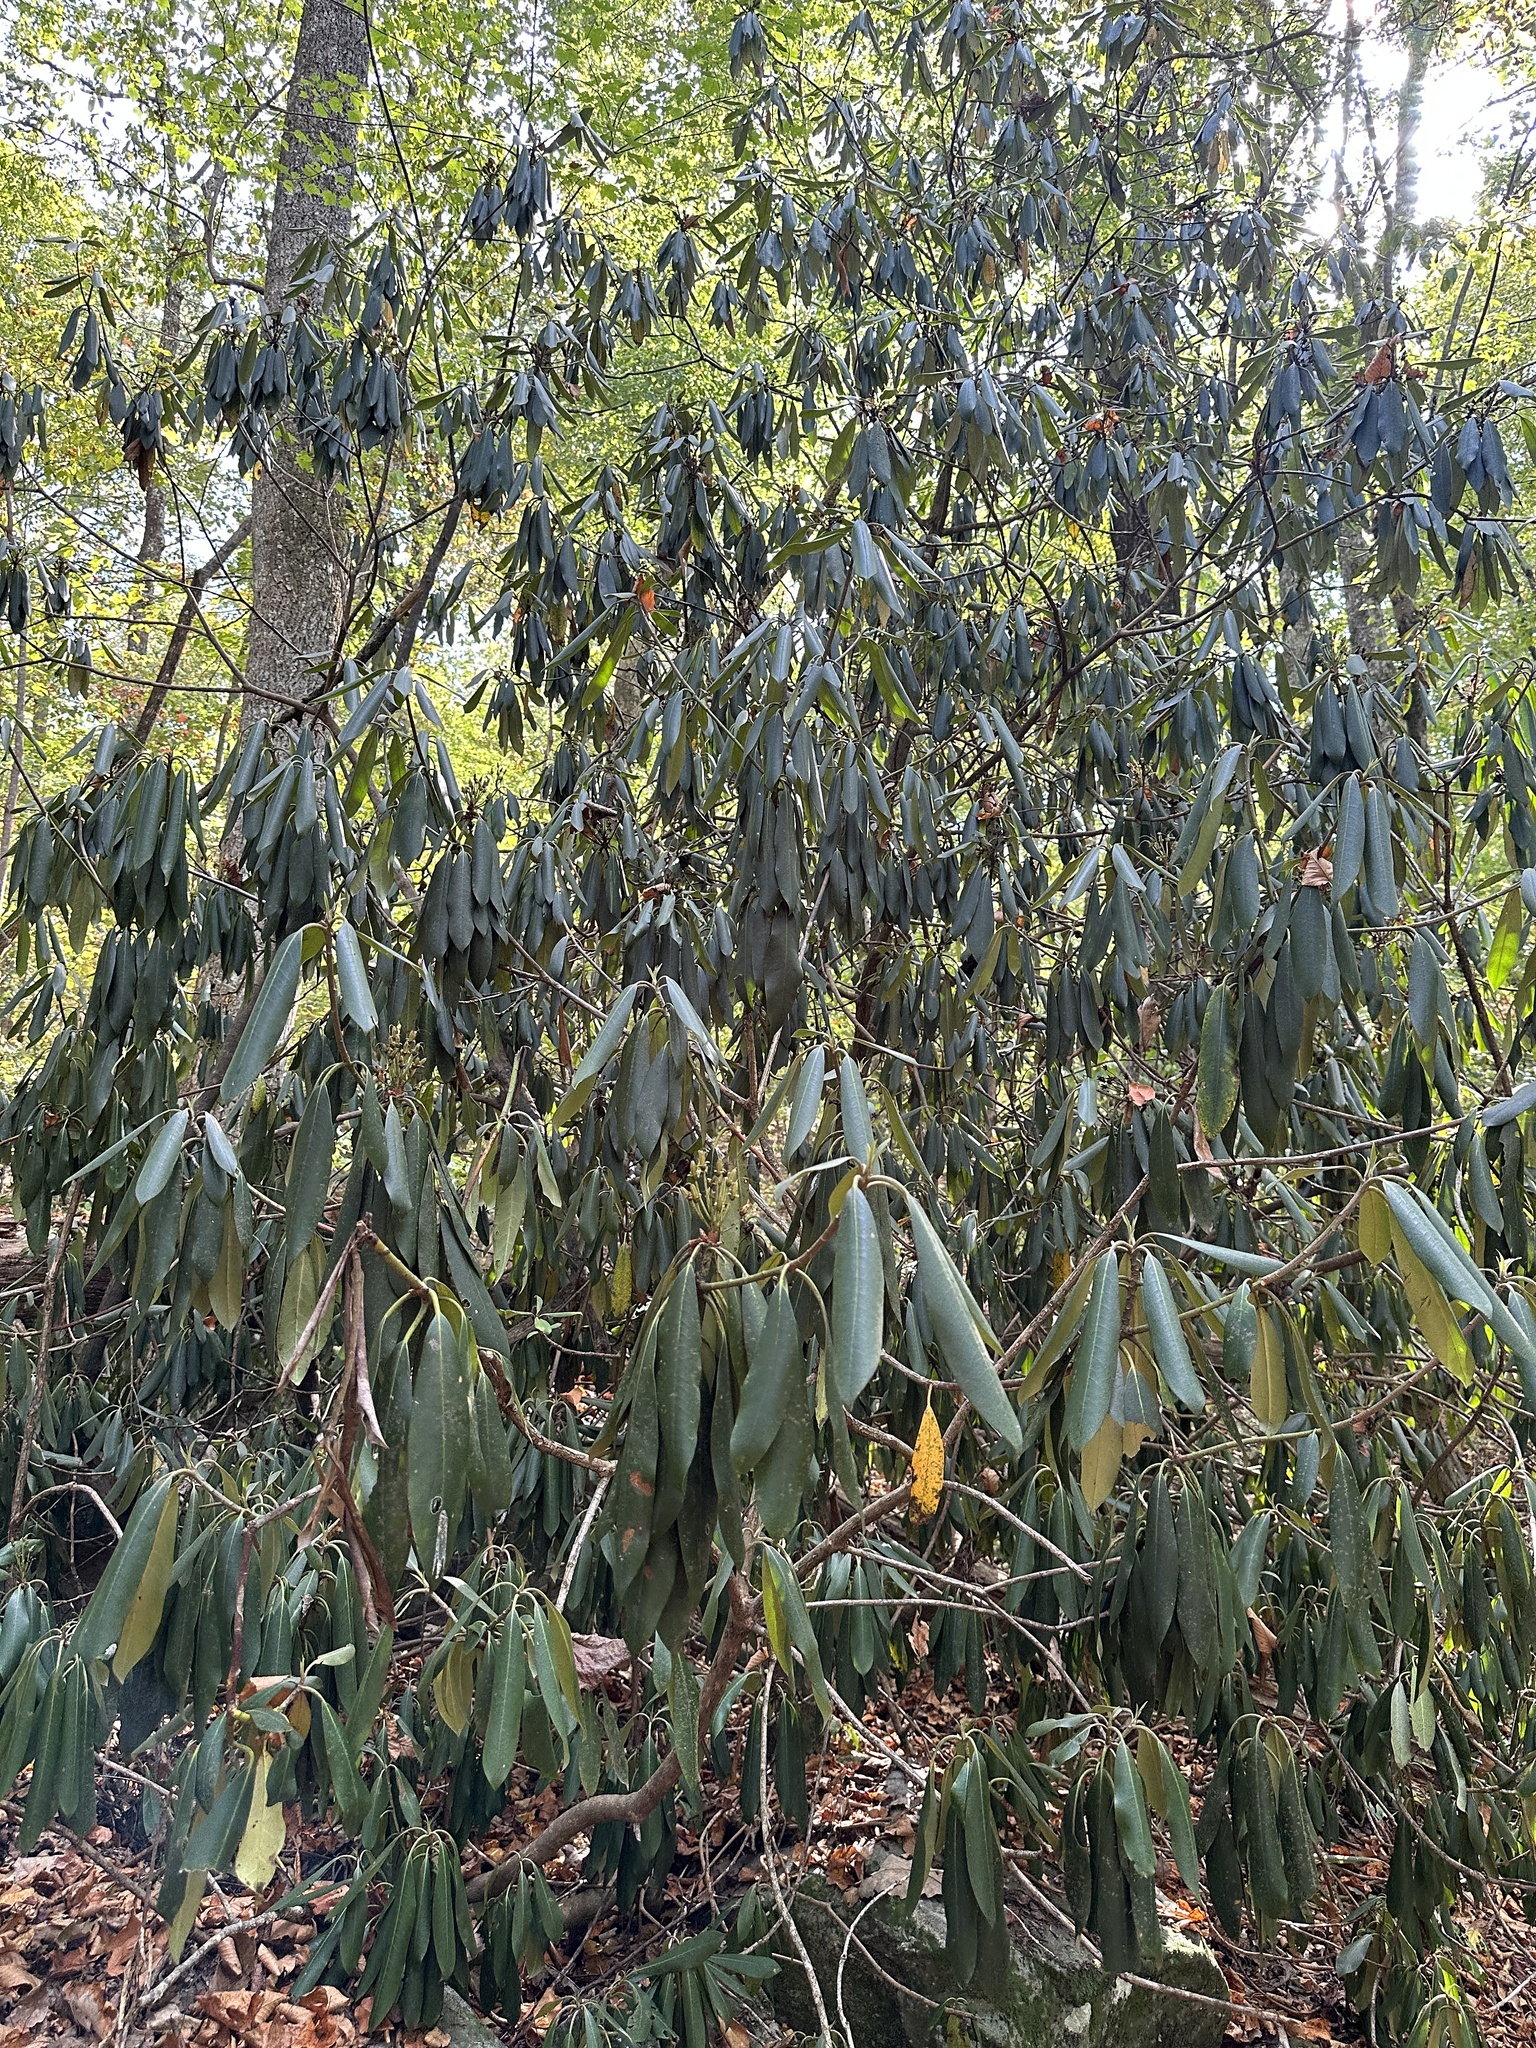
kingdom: Plantae
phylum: Tracheophyta
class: Magnoliopsida
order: Ericales
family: Ericaceae
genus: Rhododendron
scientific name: Rhododendron maximum
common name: Great rhododendron
